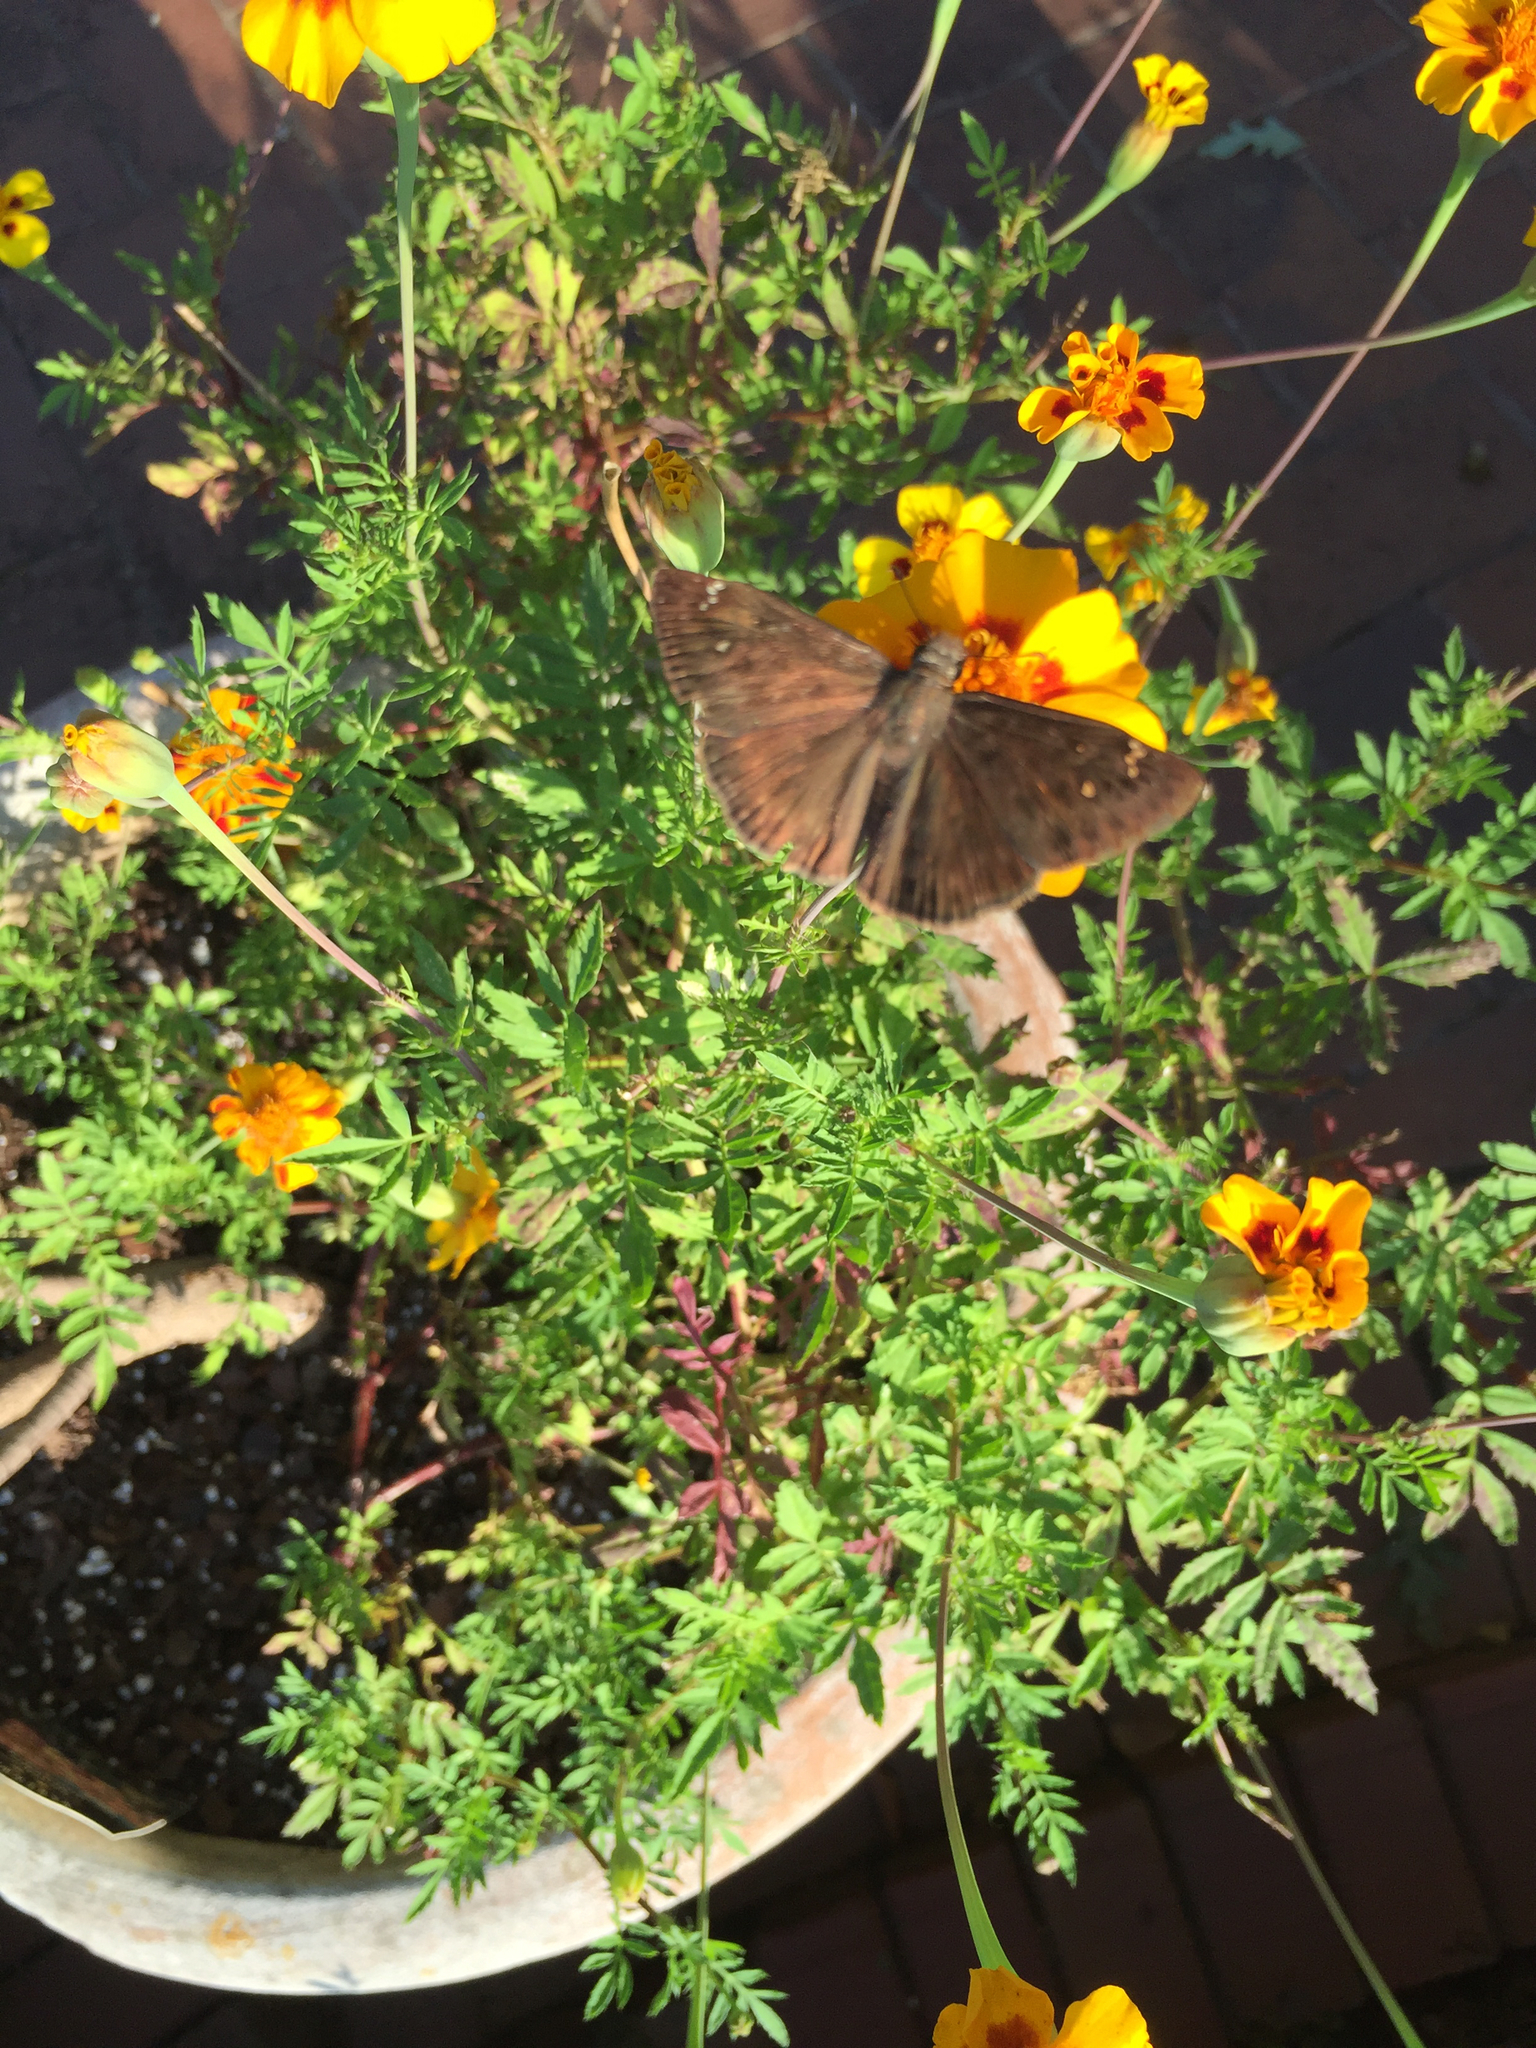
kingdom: Animalia
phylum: Arthropoda
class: Insecta
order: Lepidoptera
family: Hesperiidae
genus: Erynnis
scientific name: Erynnis horatius
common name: Horace's duskywing
